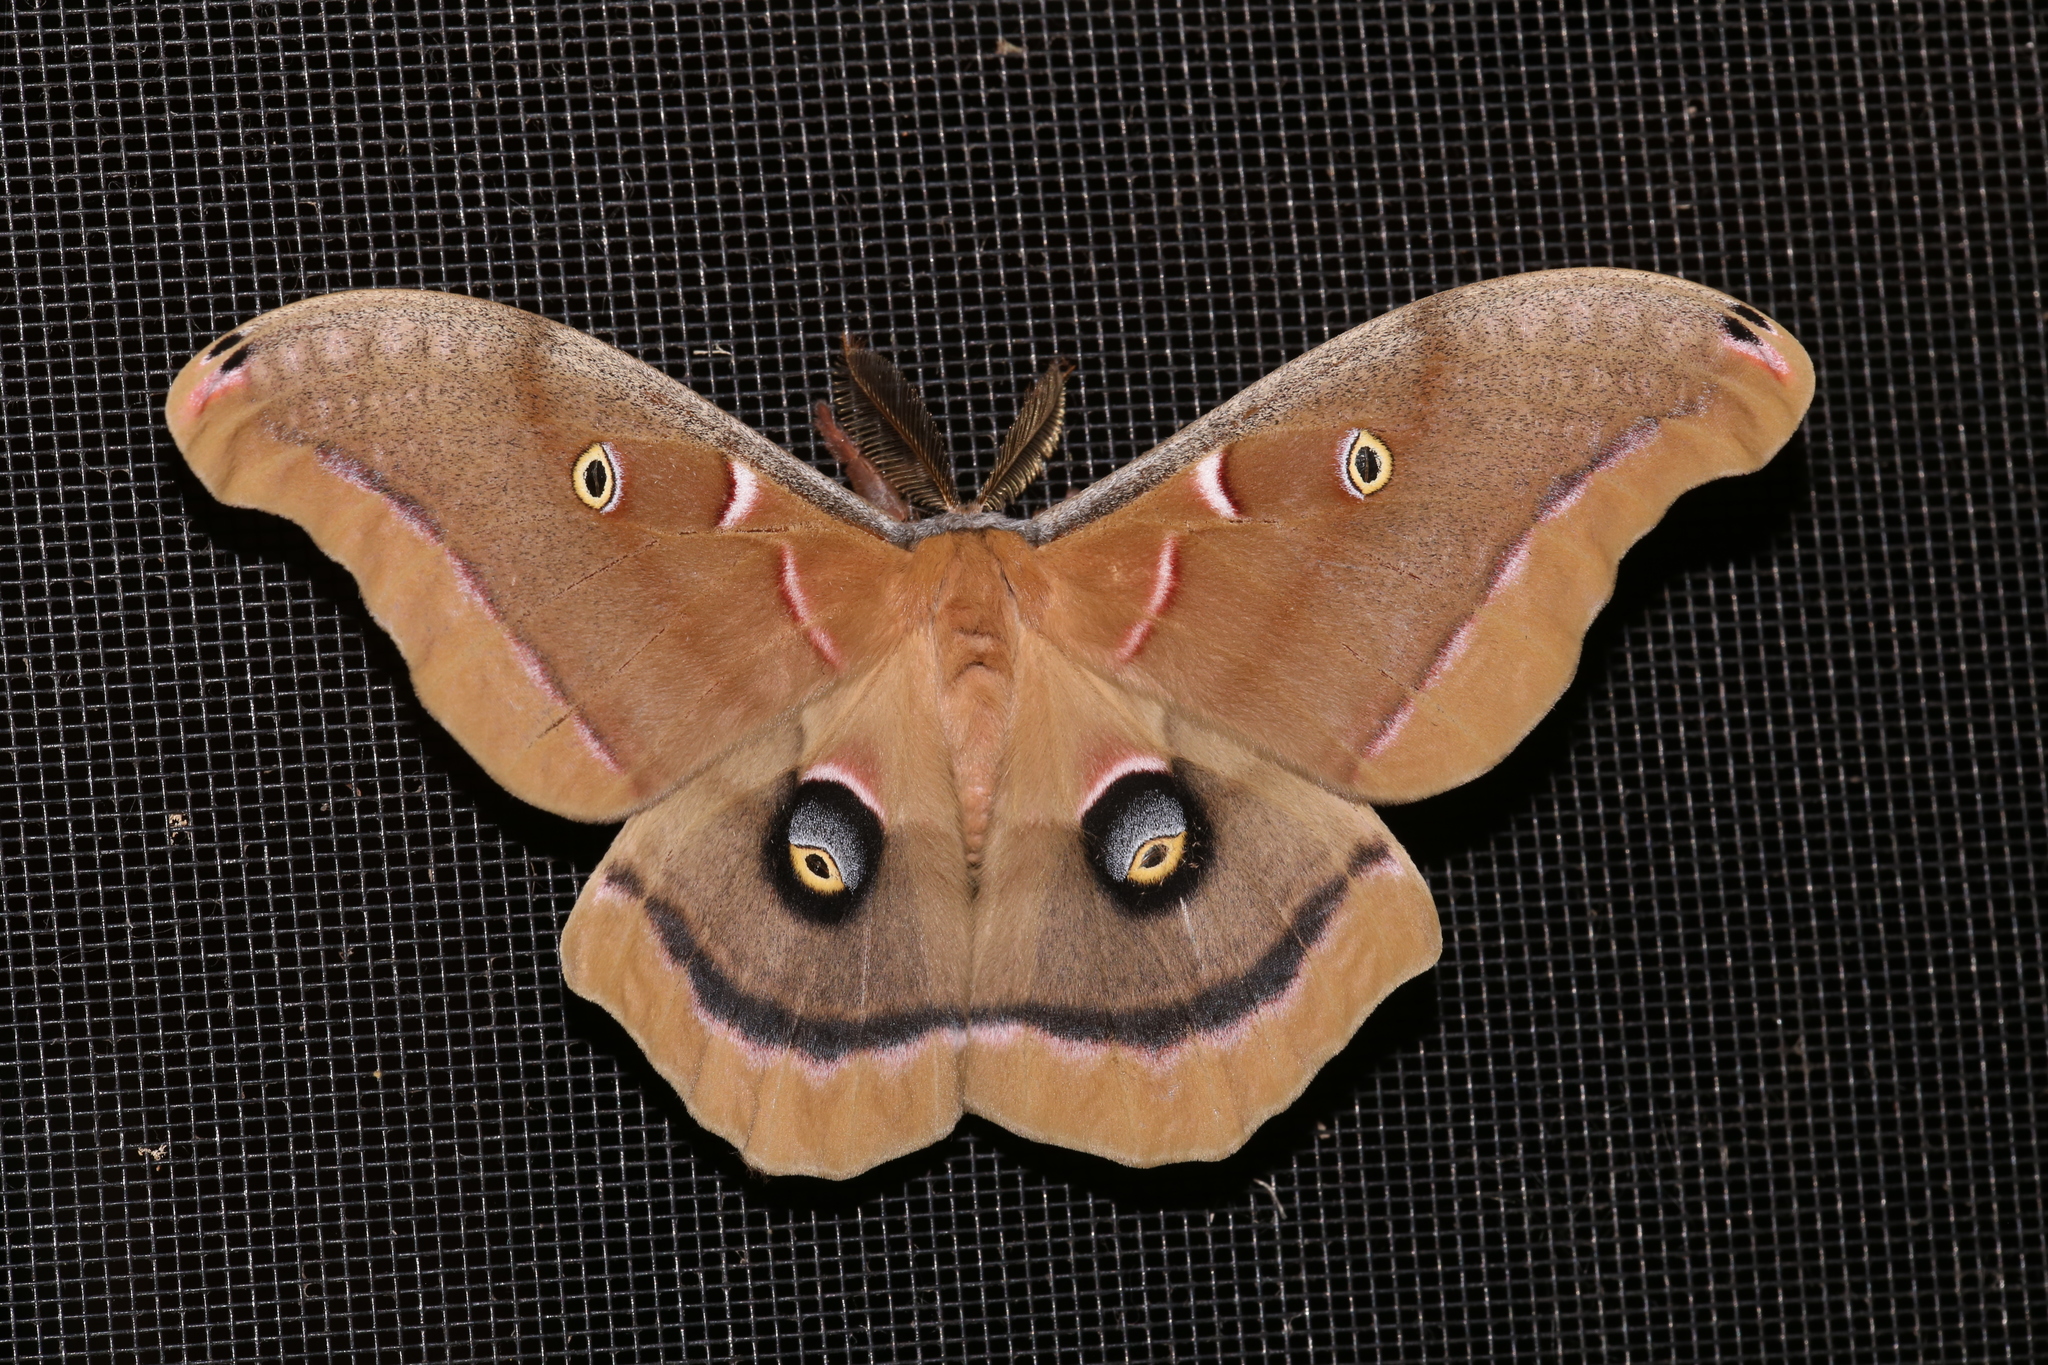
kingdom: Animalia
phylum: Arthropoda
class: Insecta
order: Lepidoptera
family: Saturniidae
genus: Antheraea
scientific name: Antheraea polyphemus
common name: Polyphemus moth
